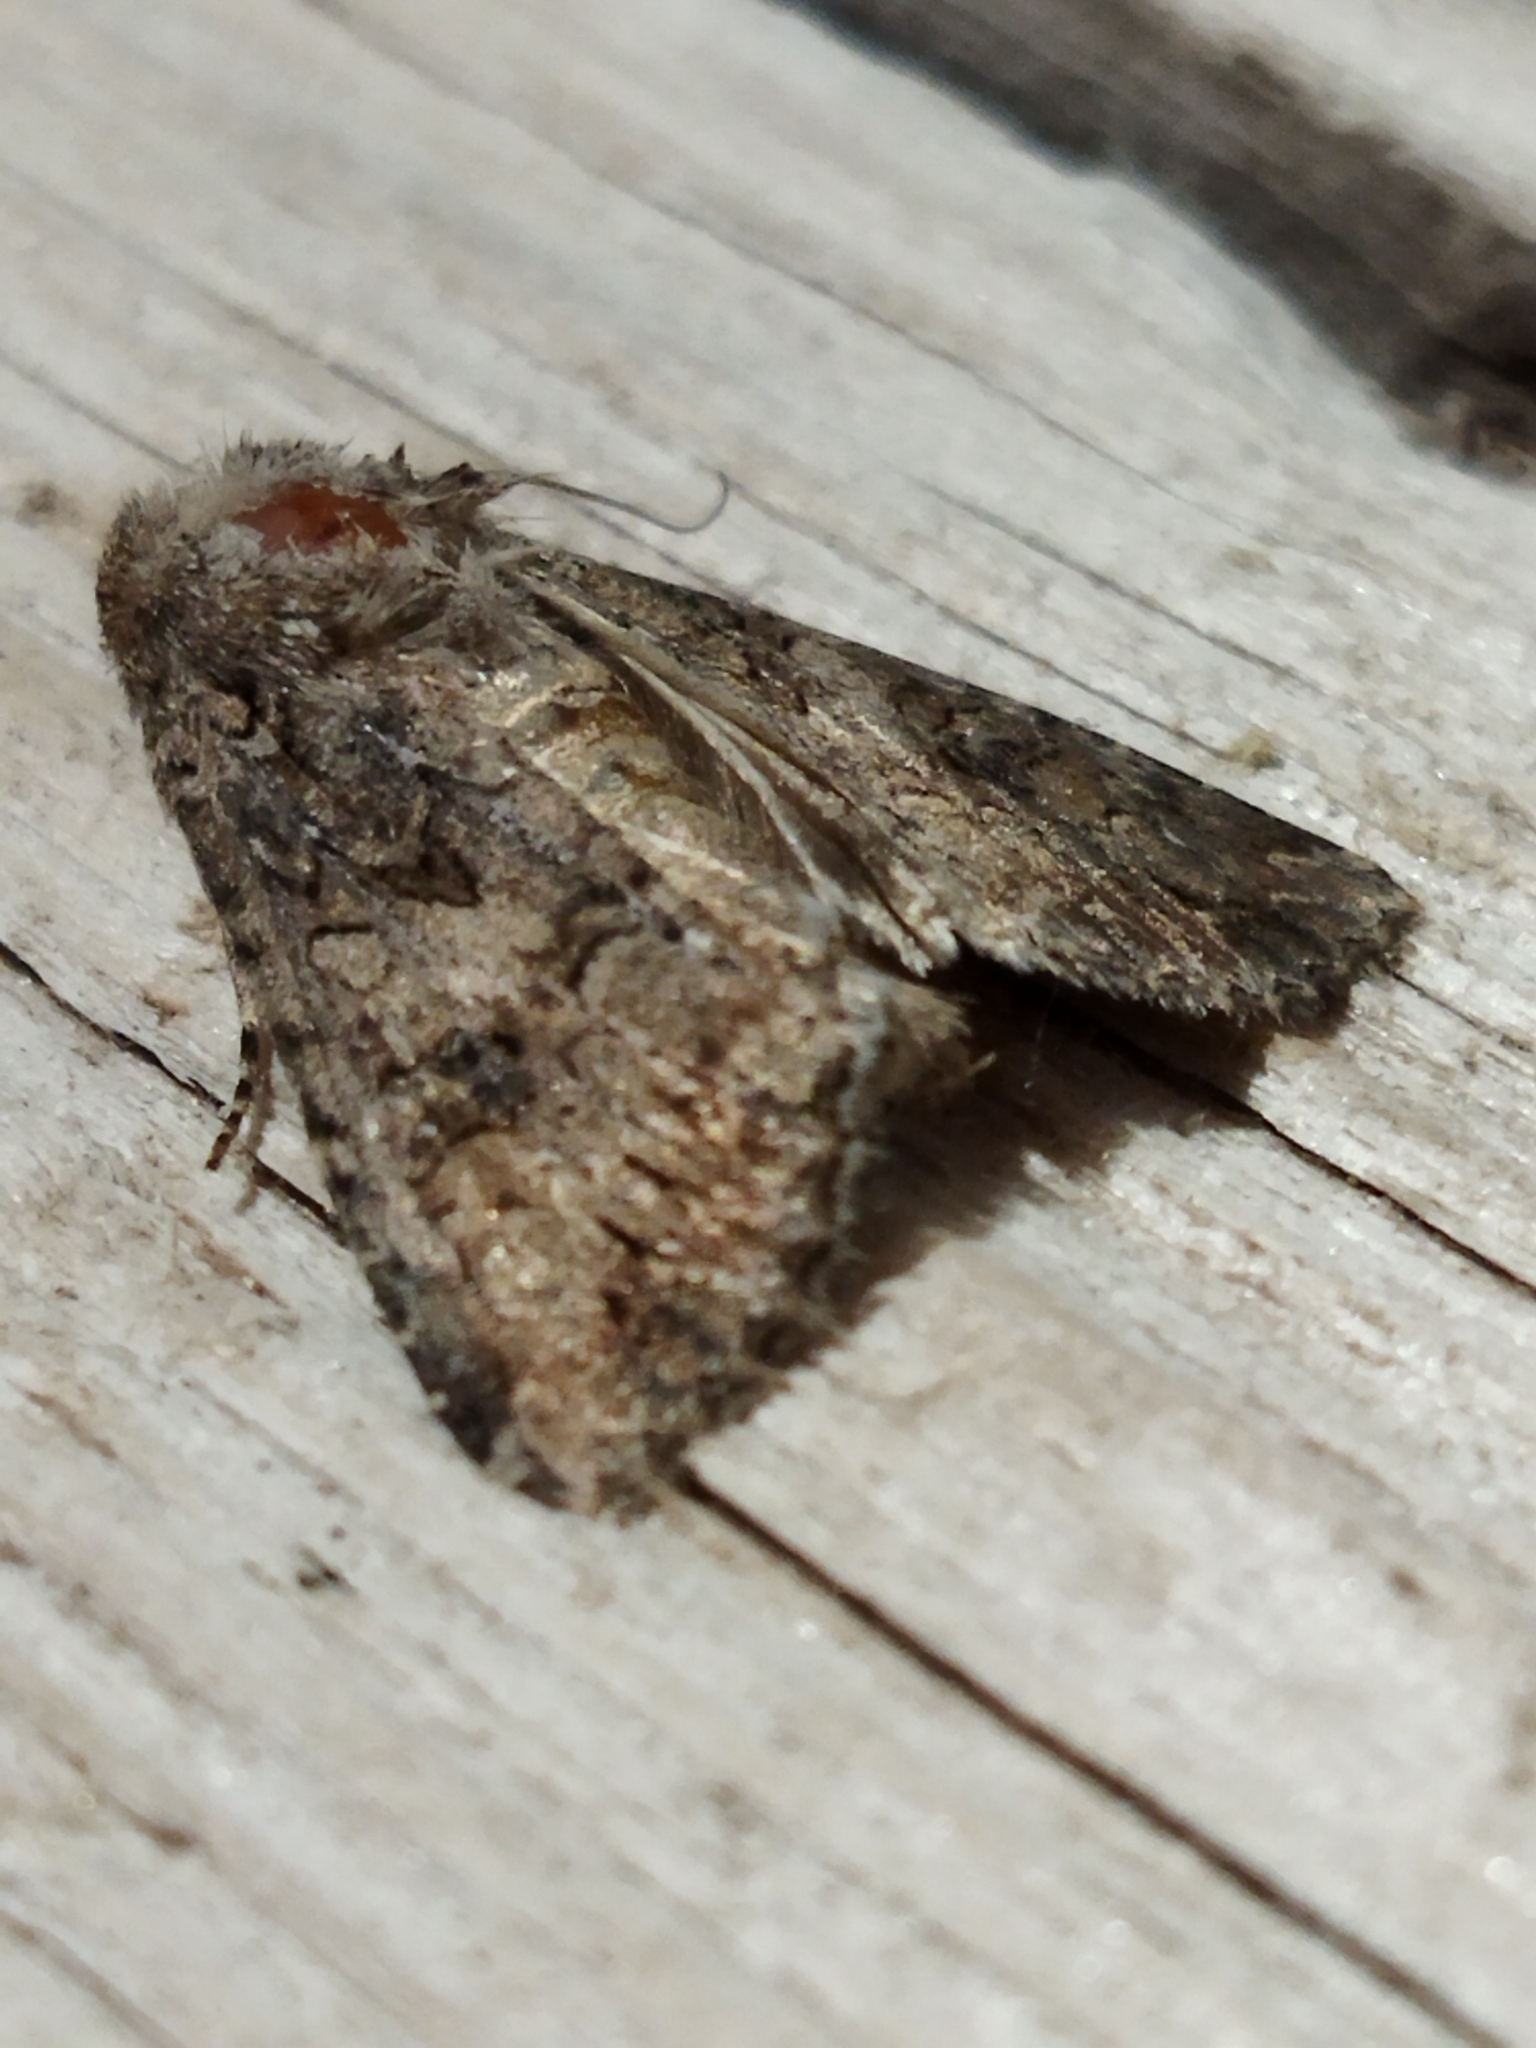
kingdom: Animalia
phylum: Arthropoda
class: Insecta
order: Lepidoptera
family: Noctuidae
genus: Anarta
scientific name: Anarta trifolii
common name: Clover cutworm moth
